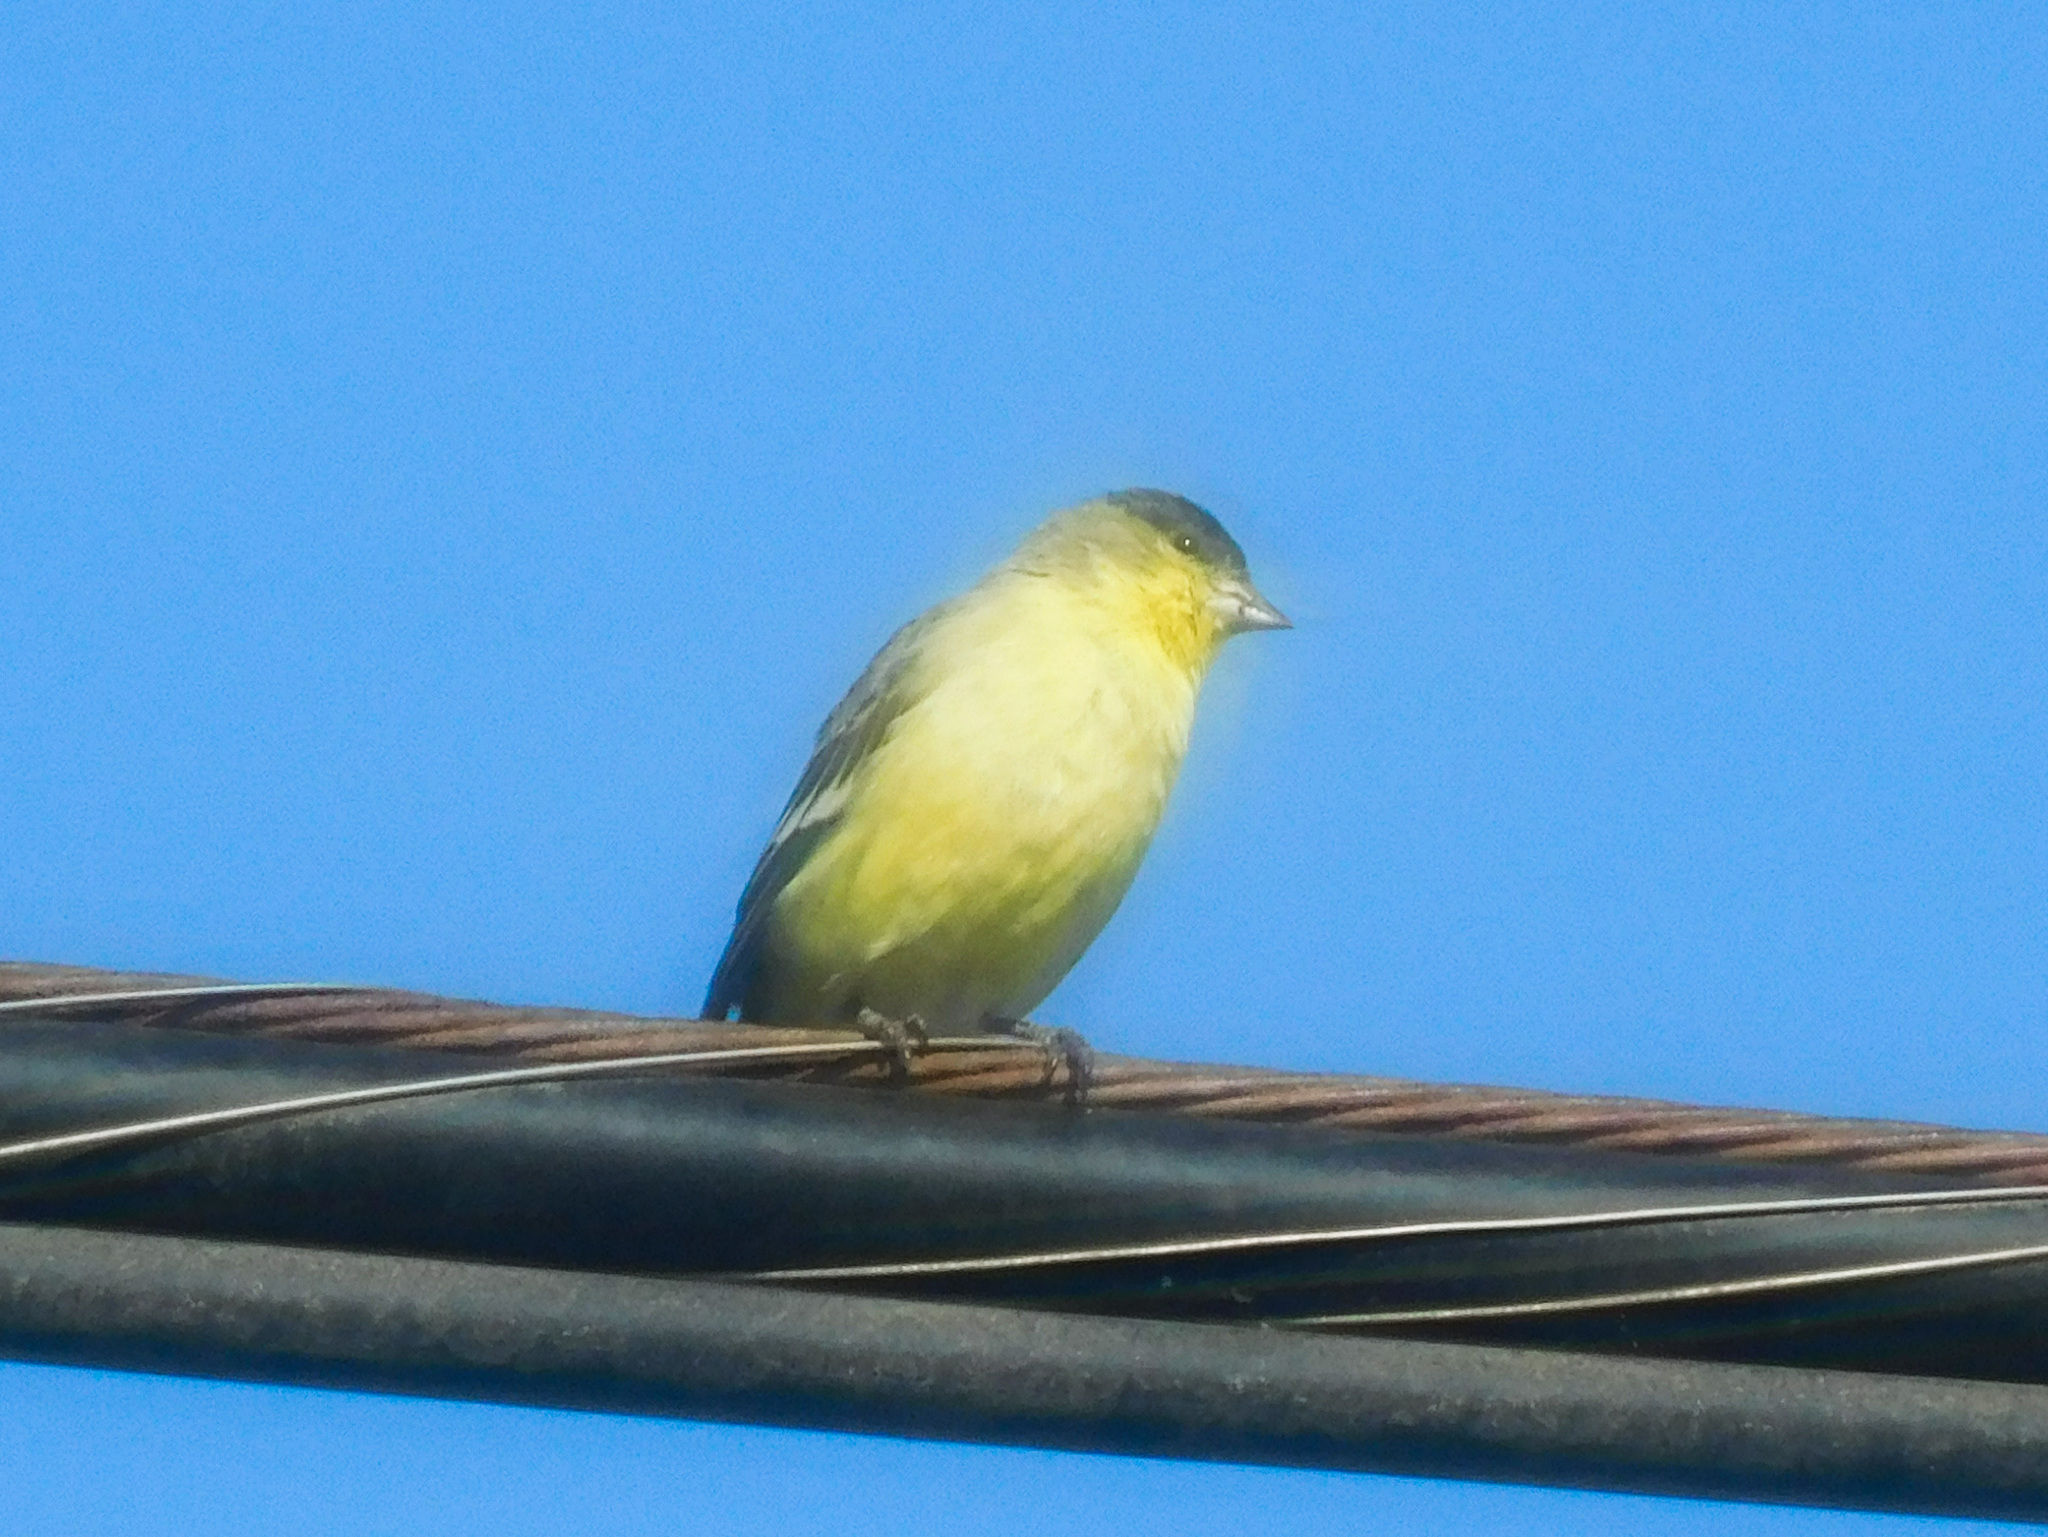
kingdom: Animalia
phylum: Chordata
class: Aves
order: Passeriformes
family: Fringillidae
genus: Spinus
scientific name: Spinus psaltria
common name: Lesser goldfinch
